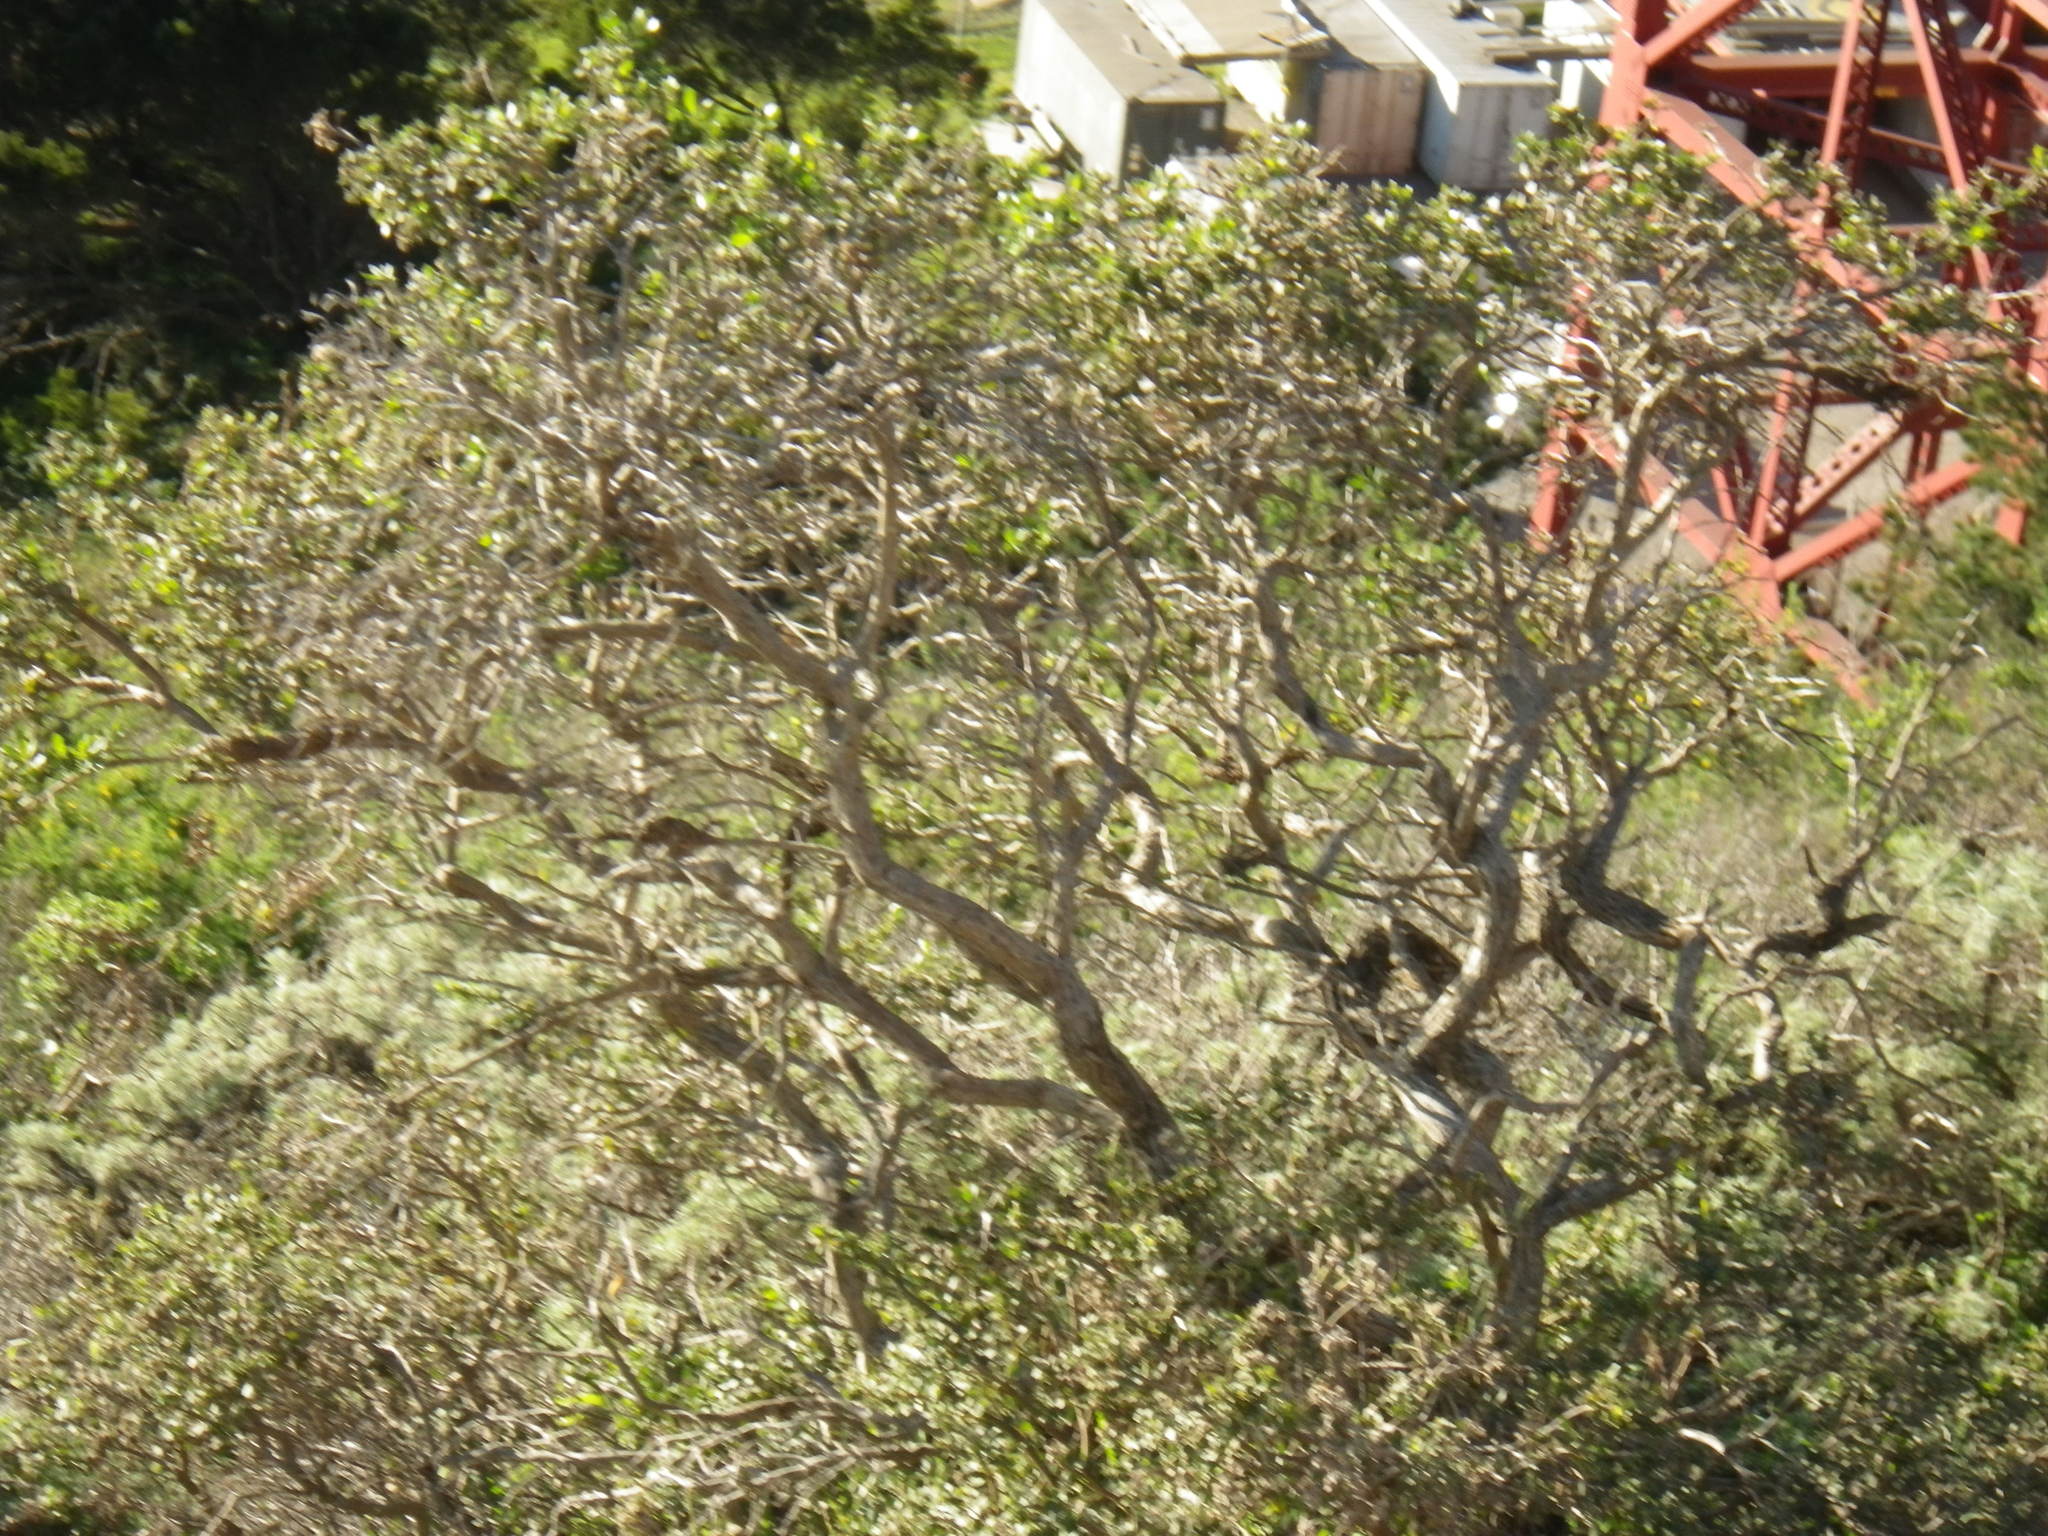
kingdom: Plantae
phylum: Tracheophyta
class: Magnoliopsida
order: Asterales
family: Asteraceae
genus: Baccharis
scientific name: Baccharis pilularis
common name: Coyotebrush
